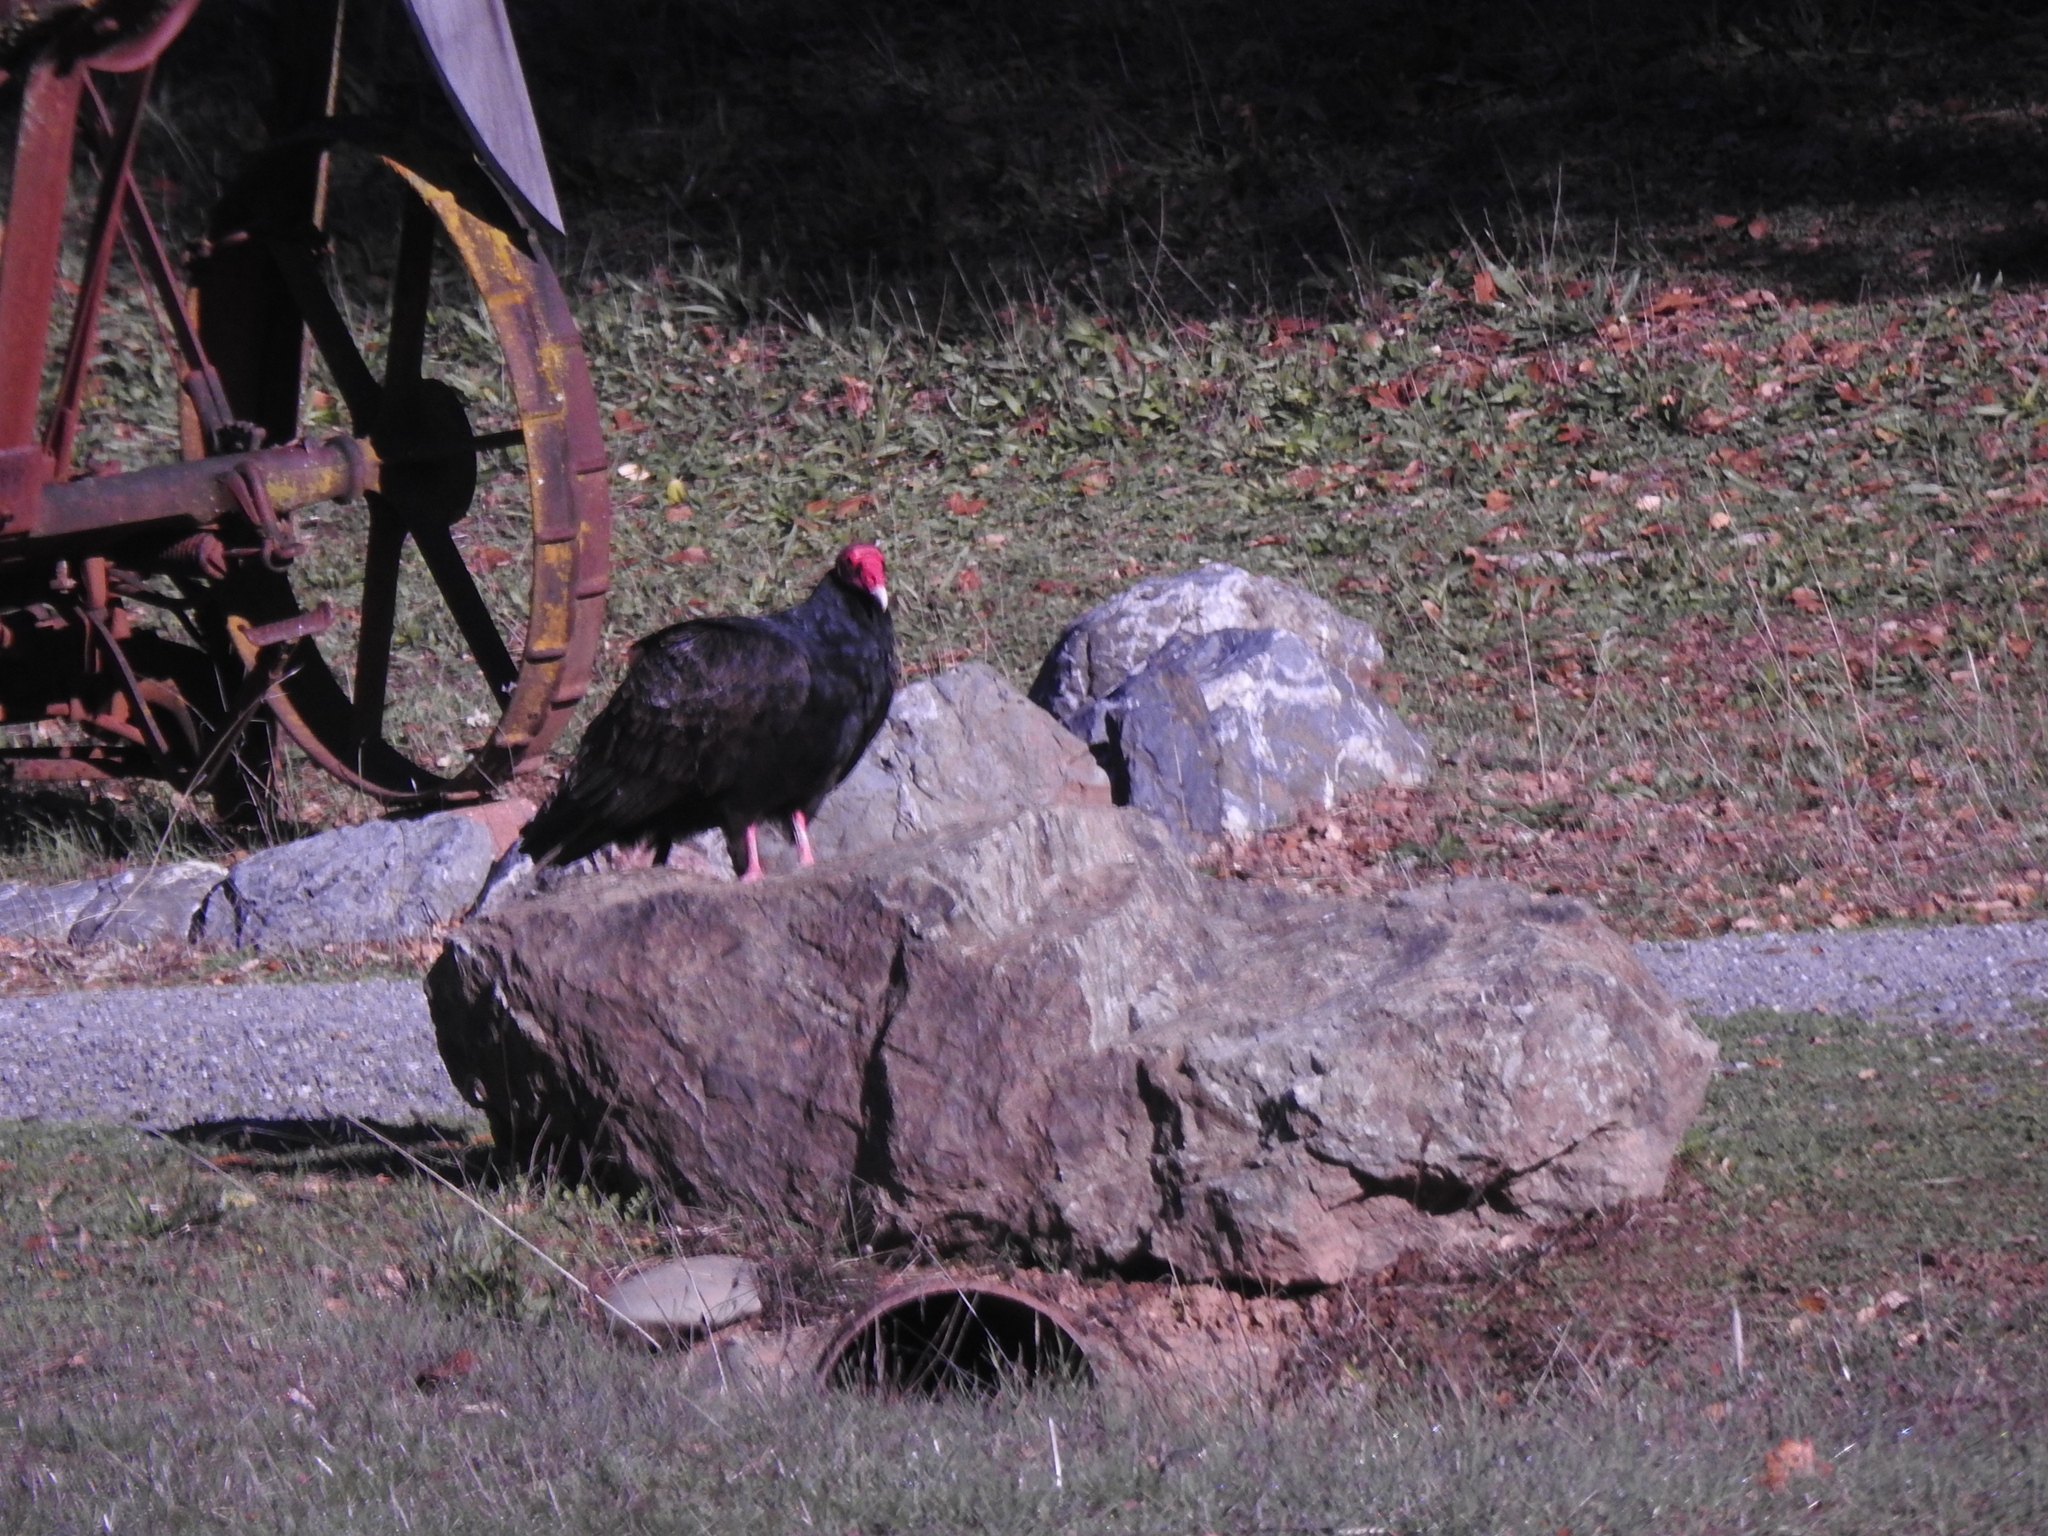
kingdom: Animalia
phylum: Chordata
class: Aves
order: Accipitriformes
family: Cathartidae
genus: Cathartes
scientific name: Cathartes aura
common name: Turkey vulture
